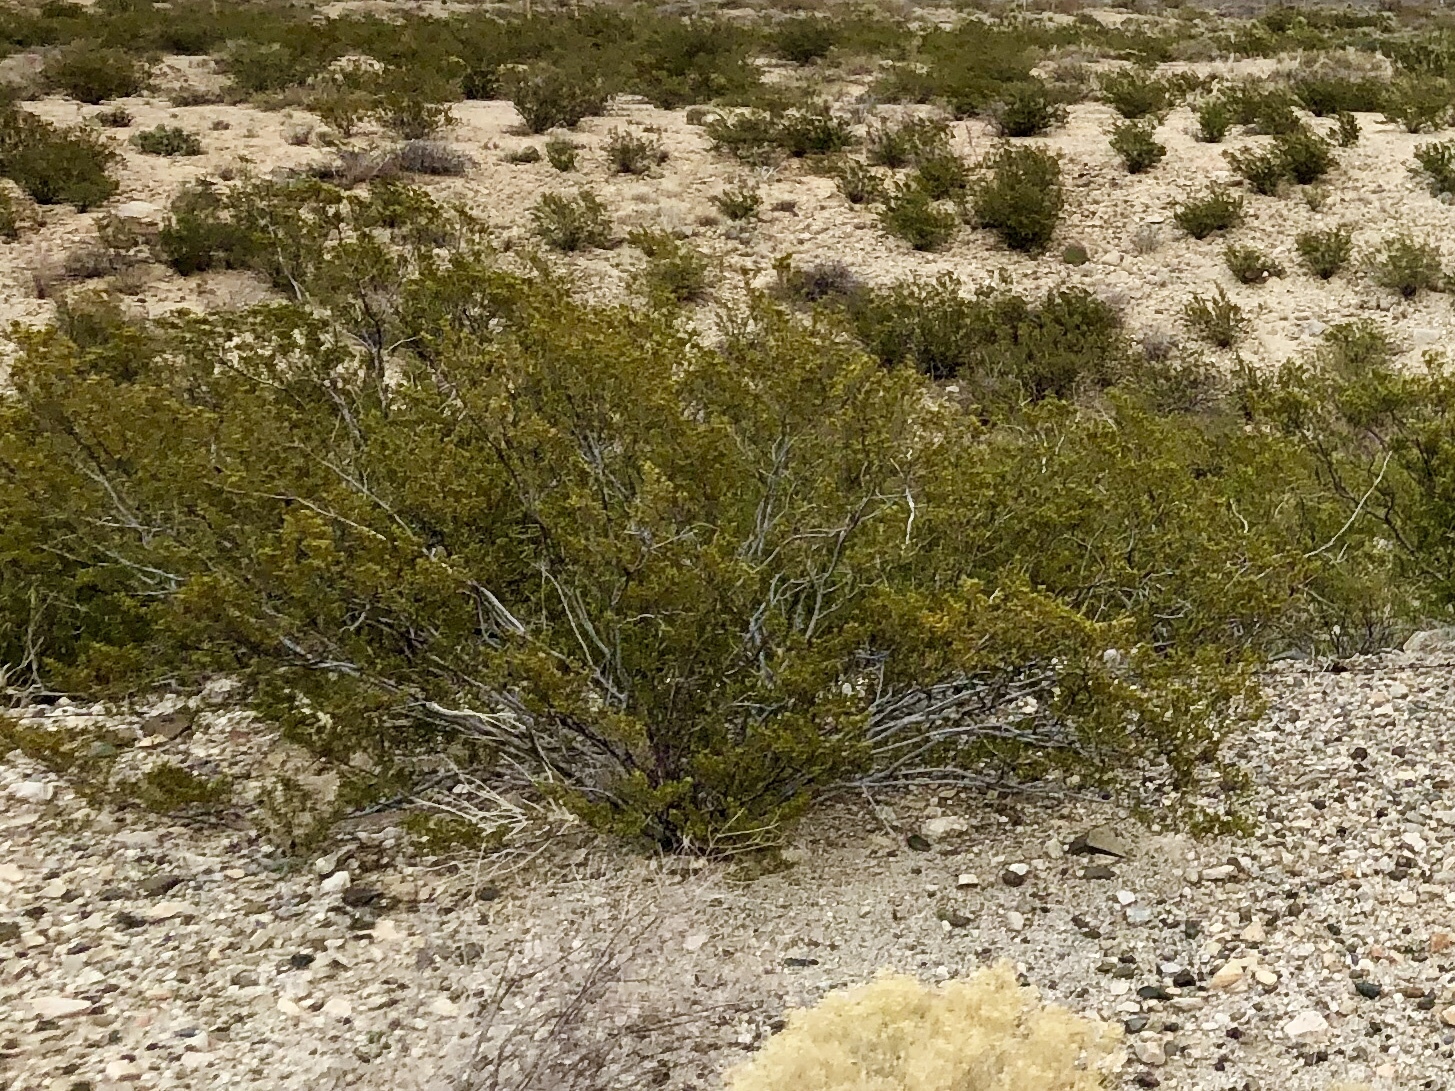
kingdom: Plantae
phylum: Tracheophyta
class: Magnoliopsida
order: Zygophyllales
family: Zygophyllaceae
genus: Larrea
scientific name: Larrea tridentata
